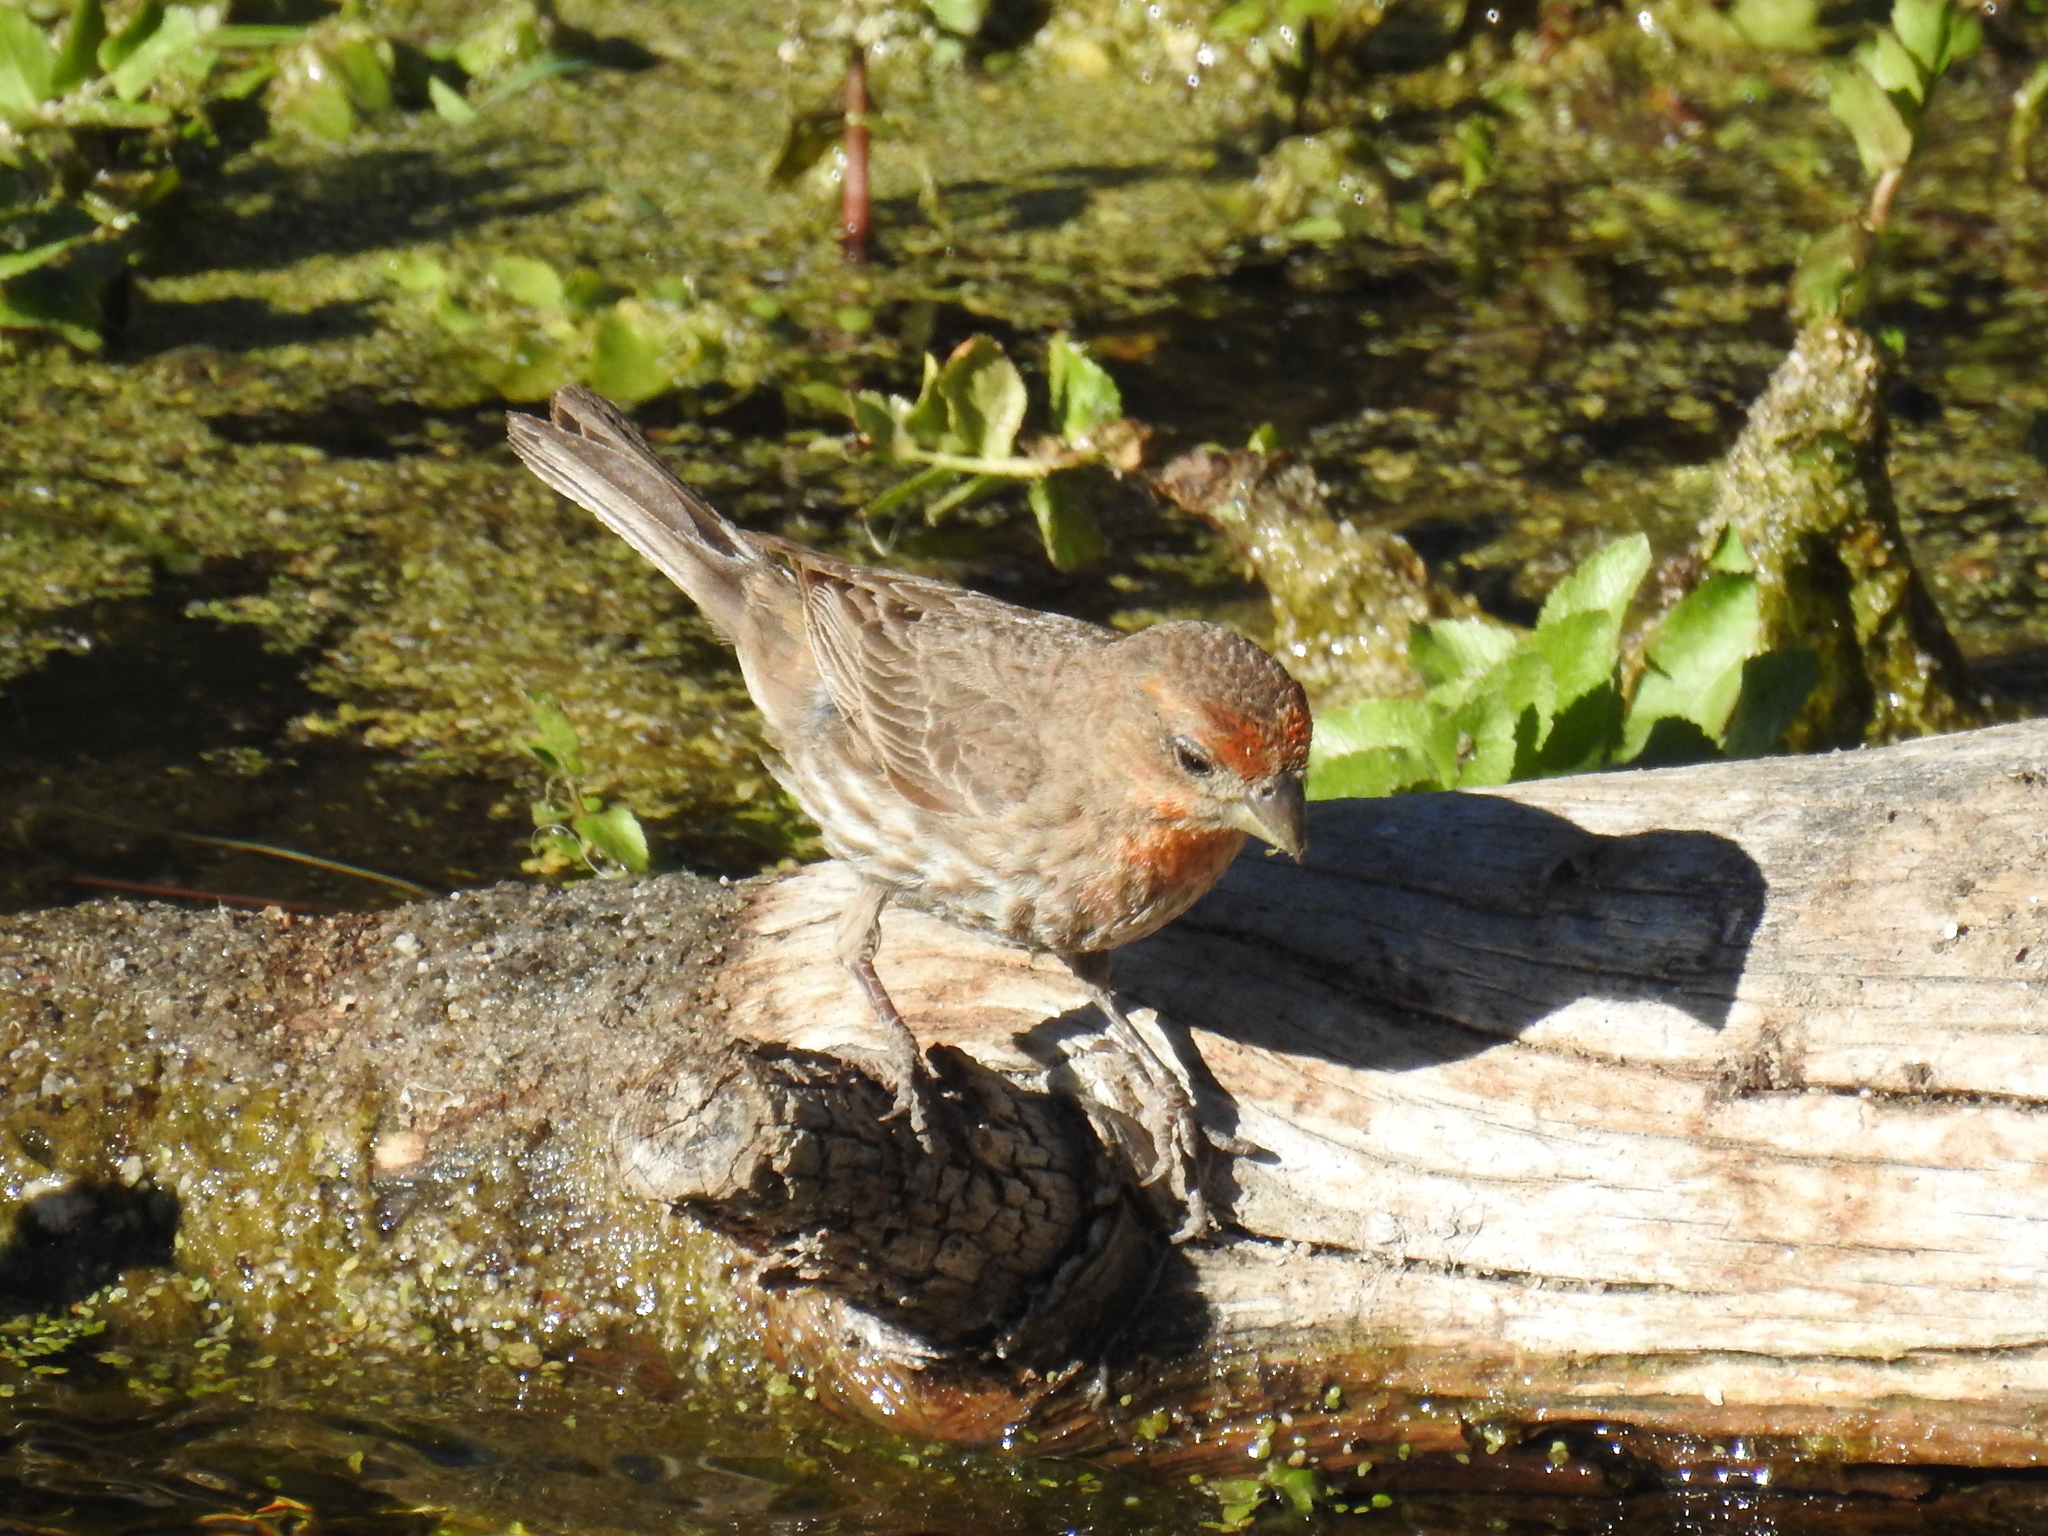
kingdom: Animalia
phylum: Chordata
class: Aves
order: Passeriformes
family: Fringillidae
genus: Haemorhous
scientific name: Haemorhous mexicanus
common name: House finch
